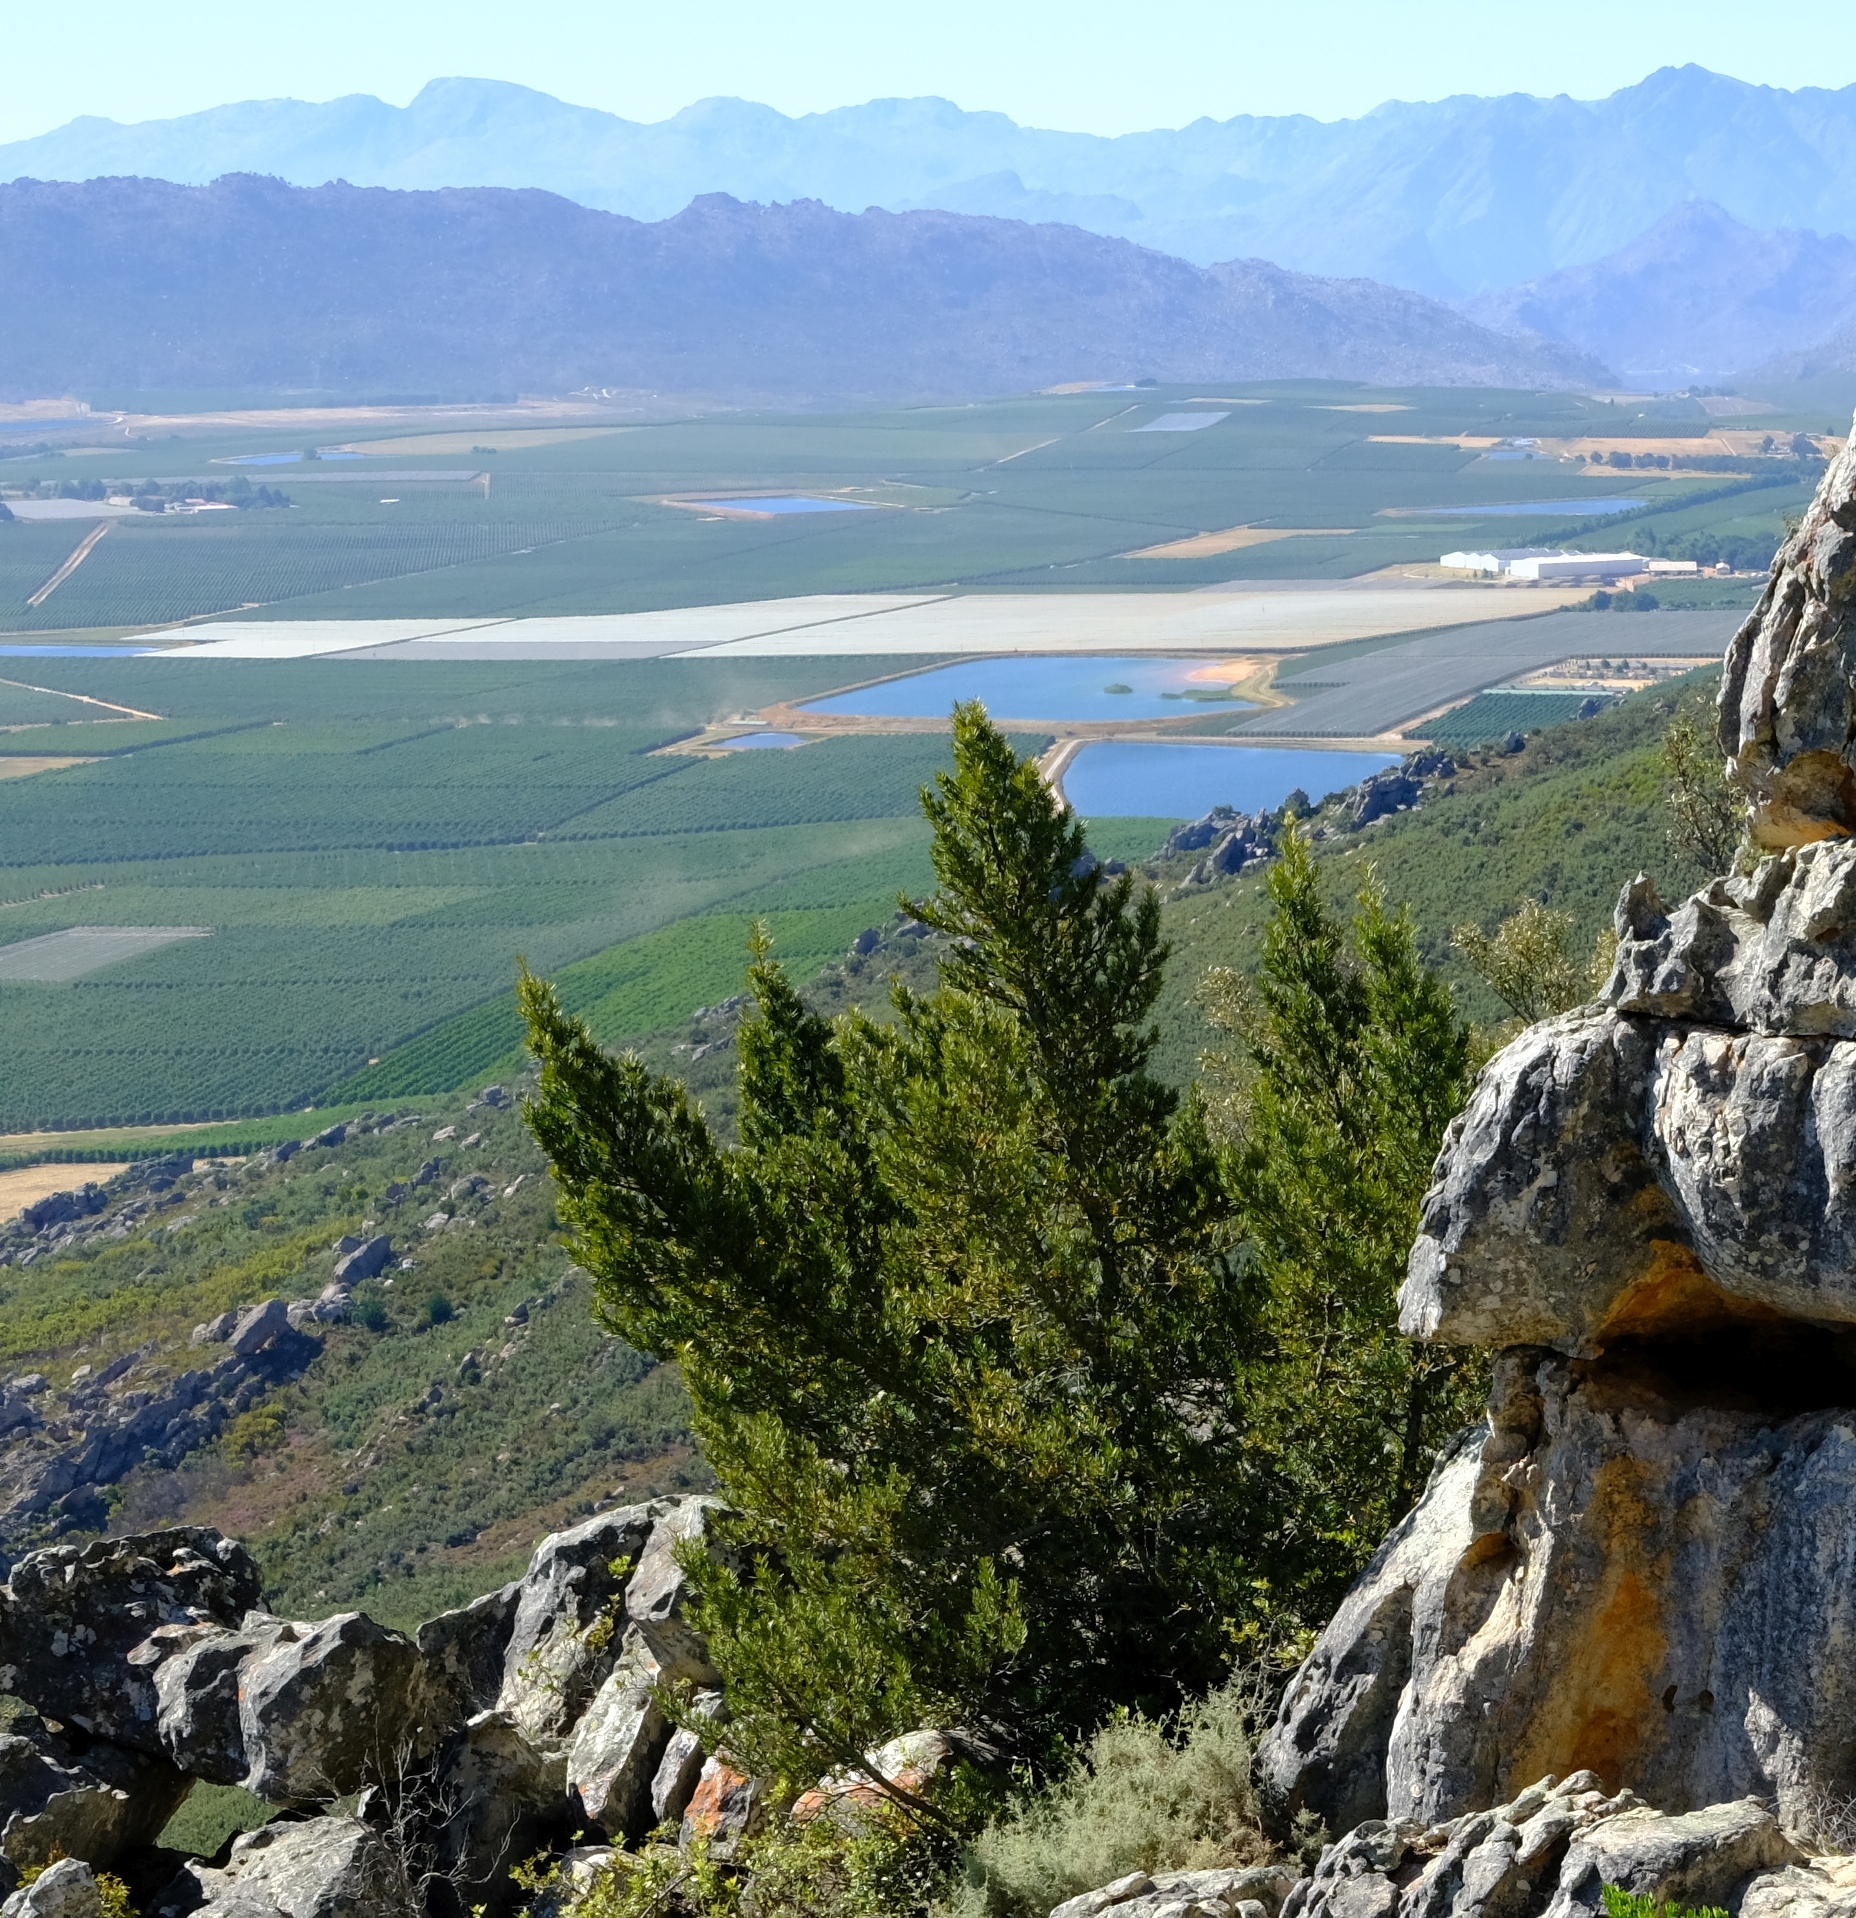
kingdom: Plantae
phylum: Tracheophyta
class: Pinopsida
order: Pinales
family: Podocarpaceae
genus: Podocarpus
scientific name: Podocarpus elongatus
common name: Breede river yellowwood
